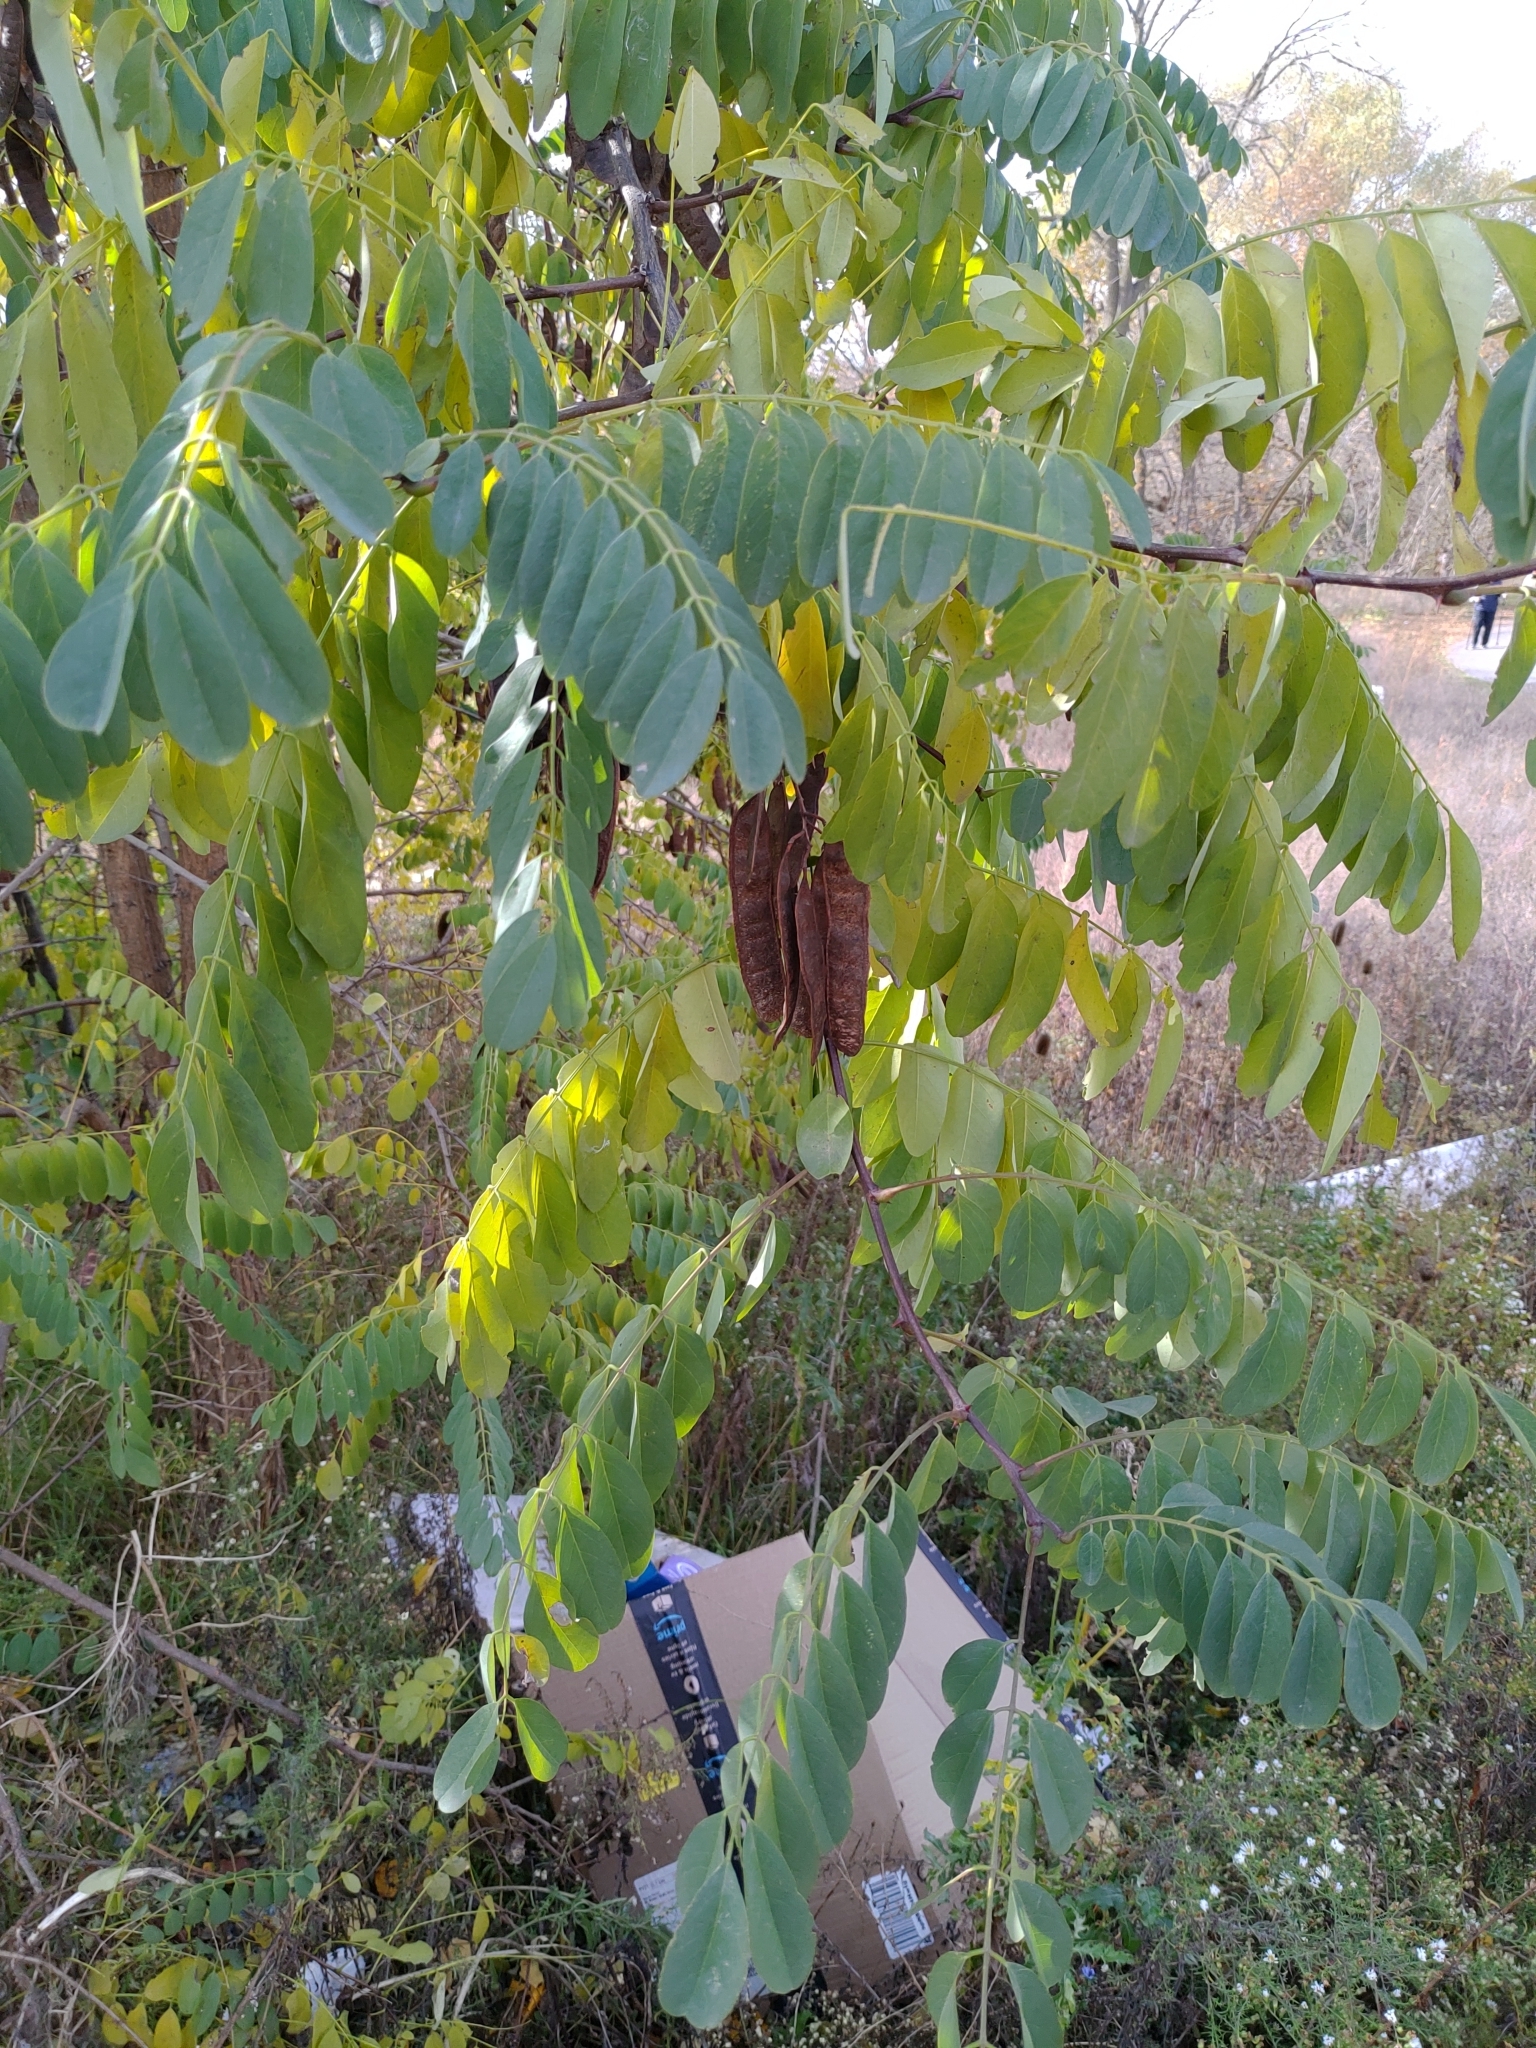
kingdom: Plantae
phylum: Tracheophyta
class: Magnoliopsida
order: Fabales
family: Fabaceae
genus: Robinia
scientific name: Robinia pseudoacacia
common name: Black locust
